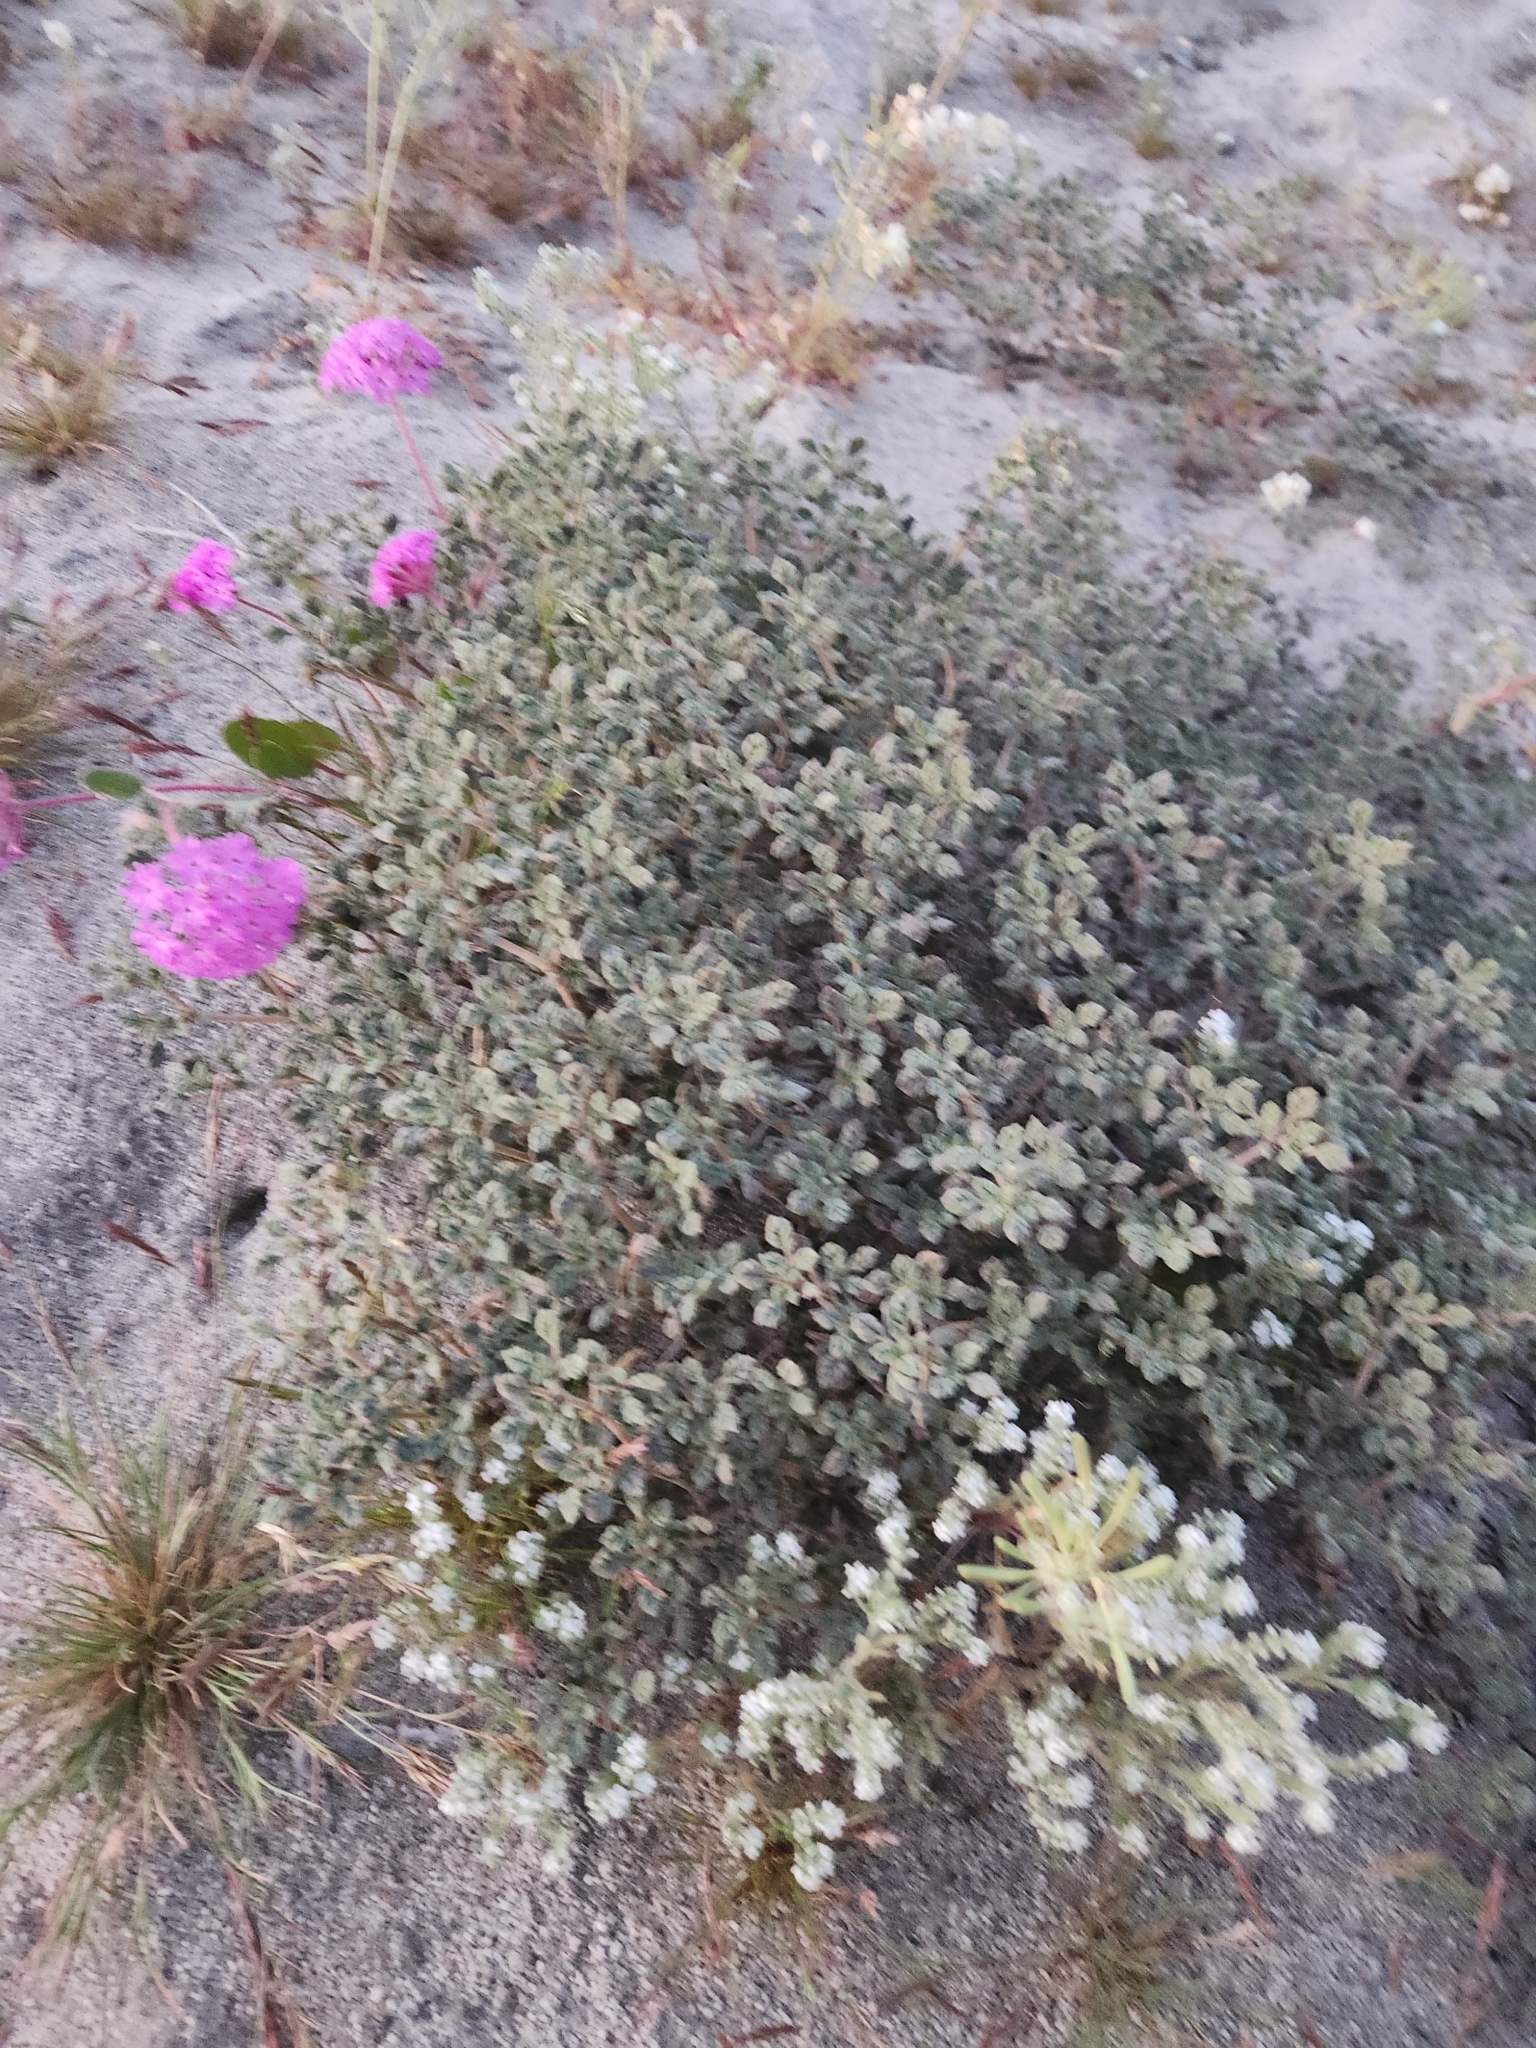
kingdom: Plantae
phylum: Tracheophyta
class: Magnoliopsida
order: Boraginales
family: Ehretiaceae
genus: Tiquilia
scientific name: Tiquilia palmeri
